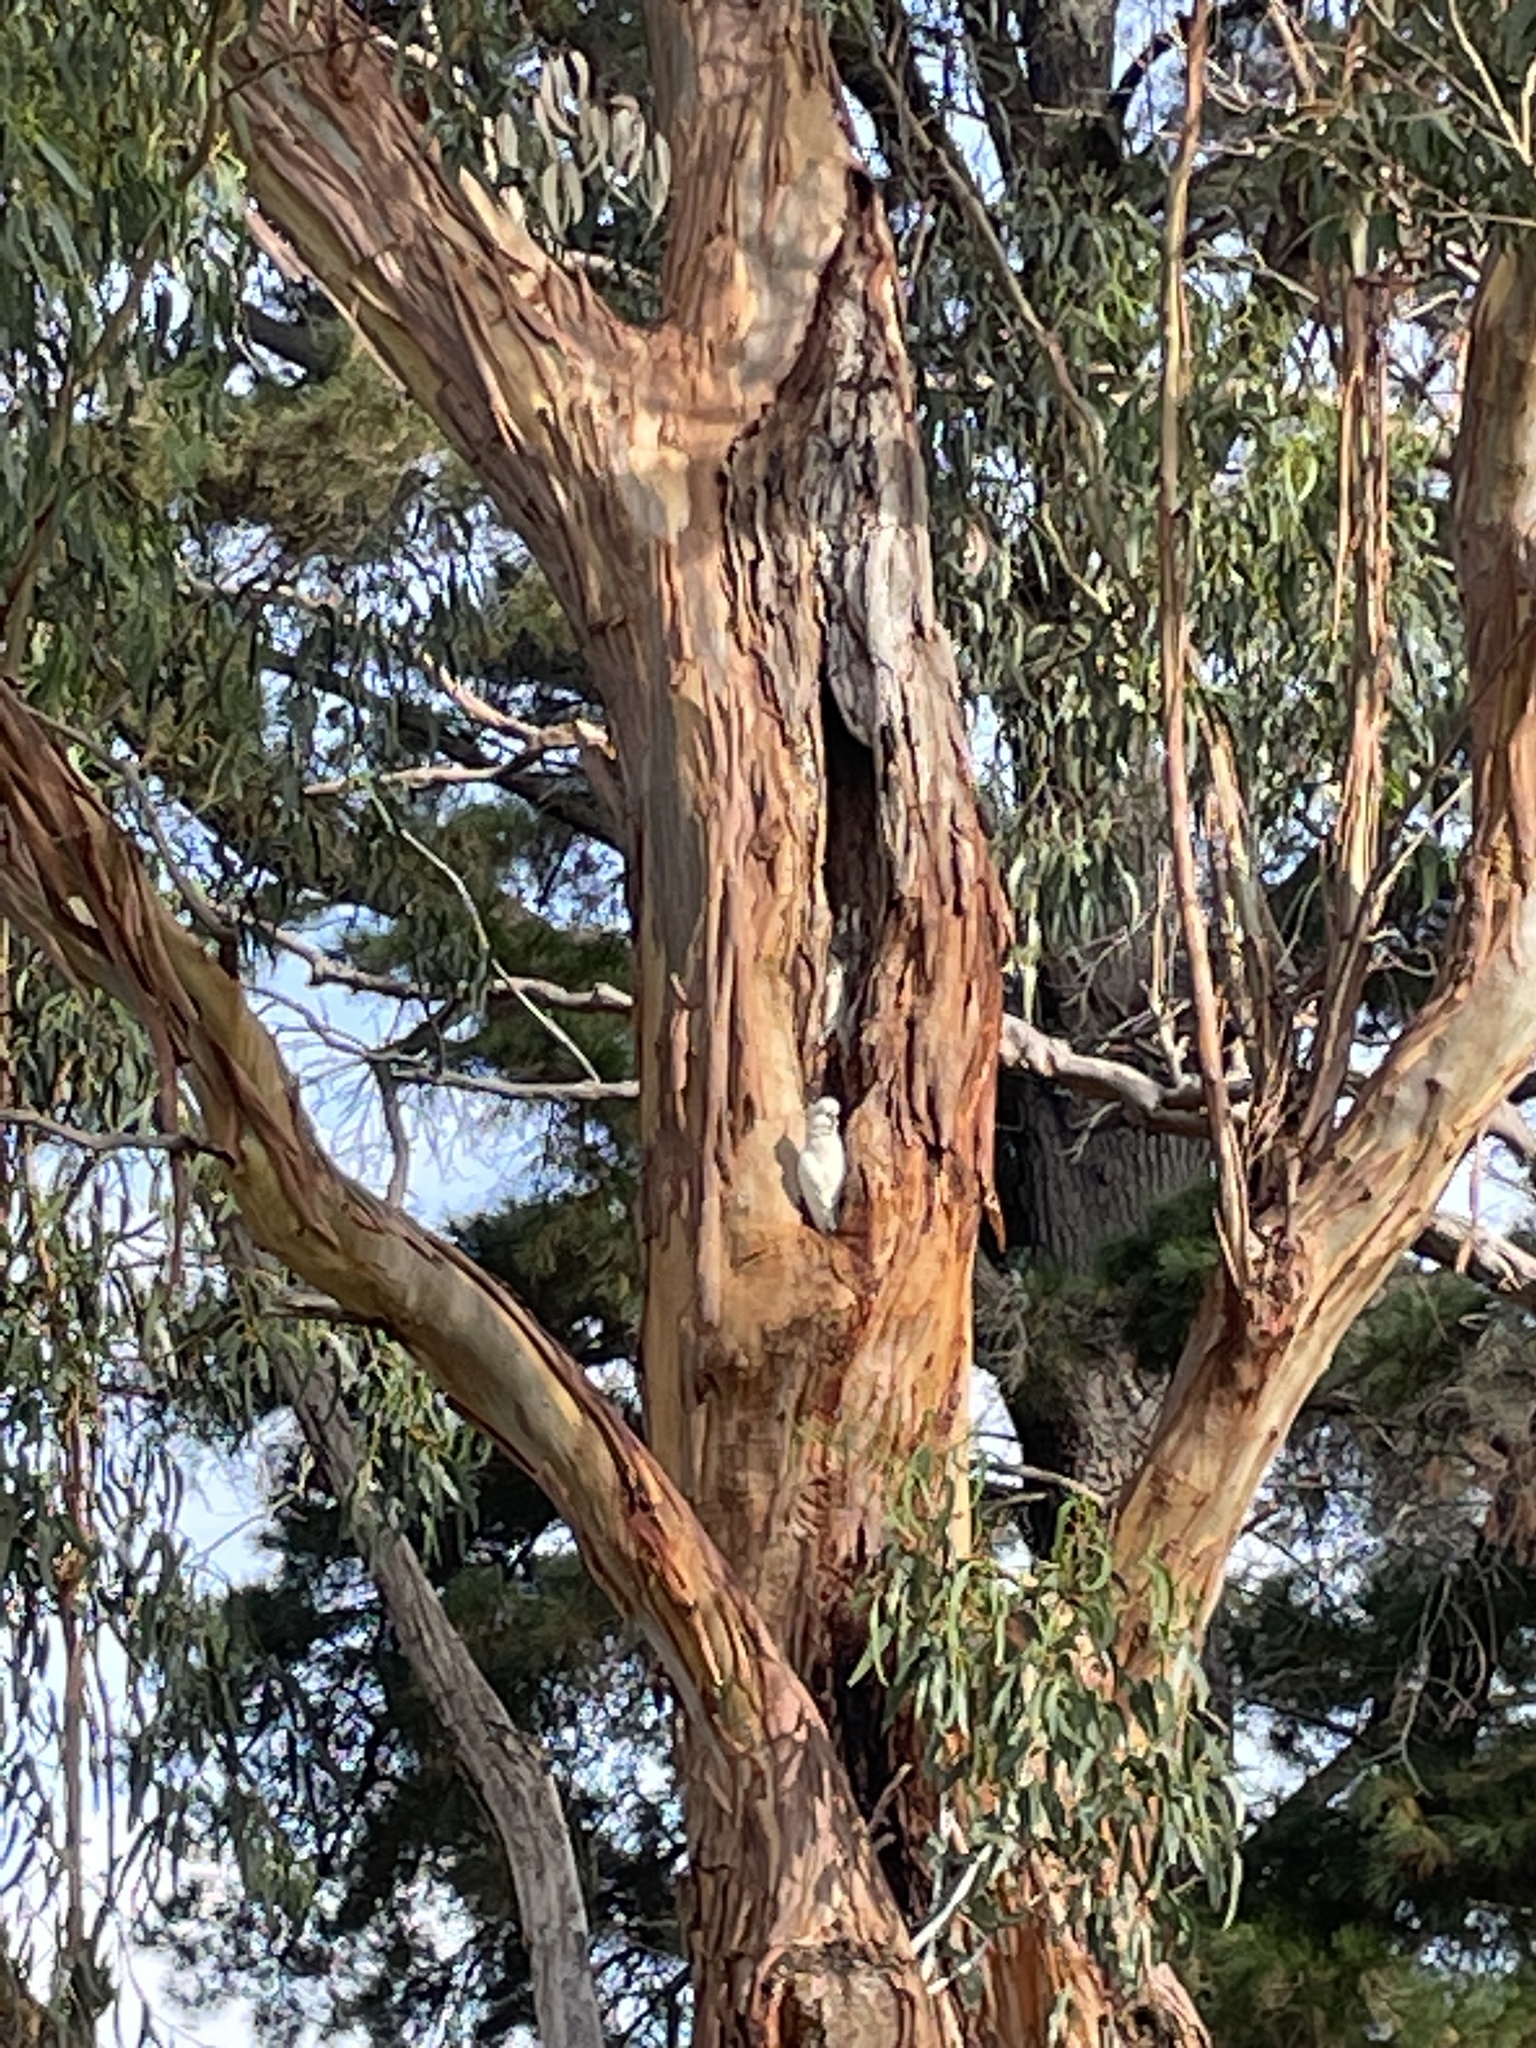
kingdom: Animalia
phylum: Chordata
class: Aves
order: Psittaciformes
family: Psittacidae
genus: Cacatua
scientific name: Cacatua galerita
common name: Sulphur-crested cockatoo
